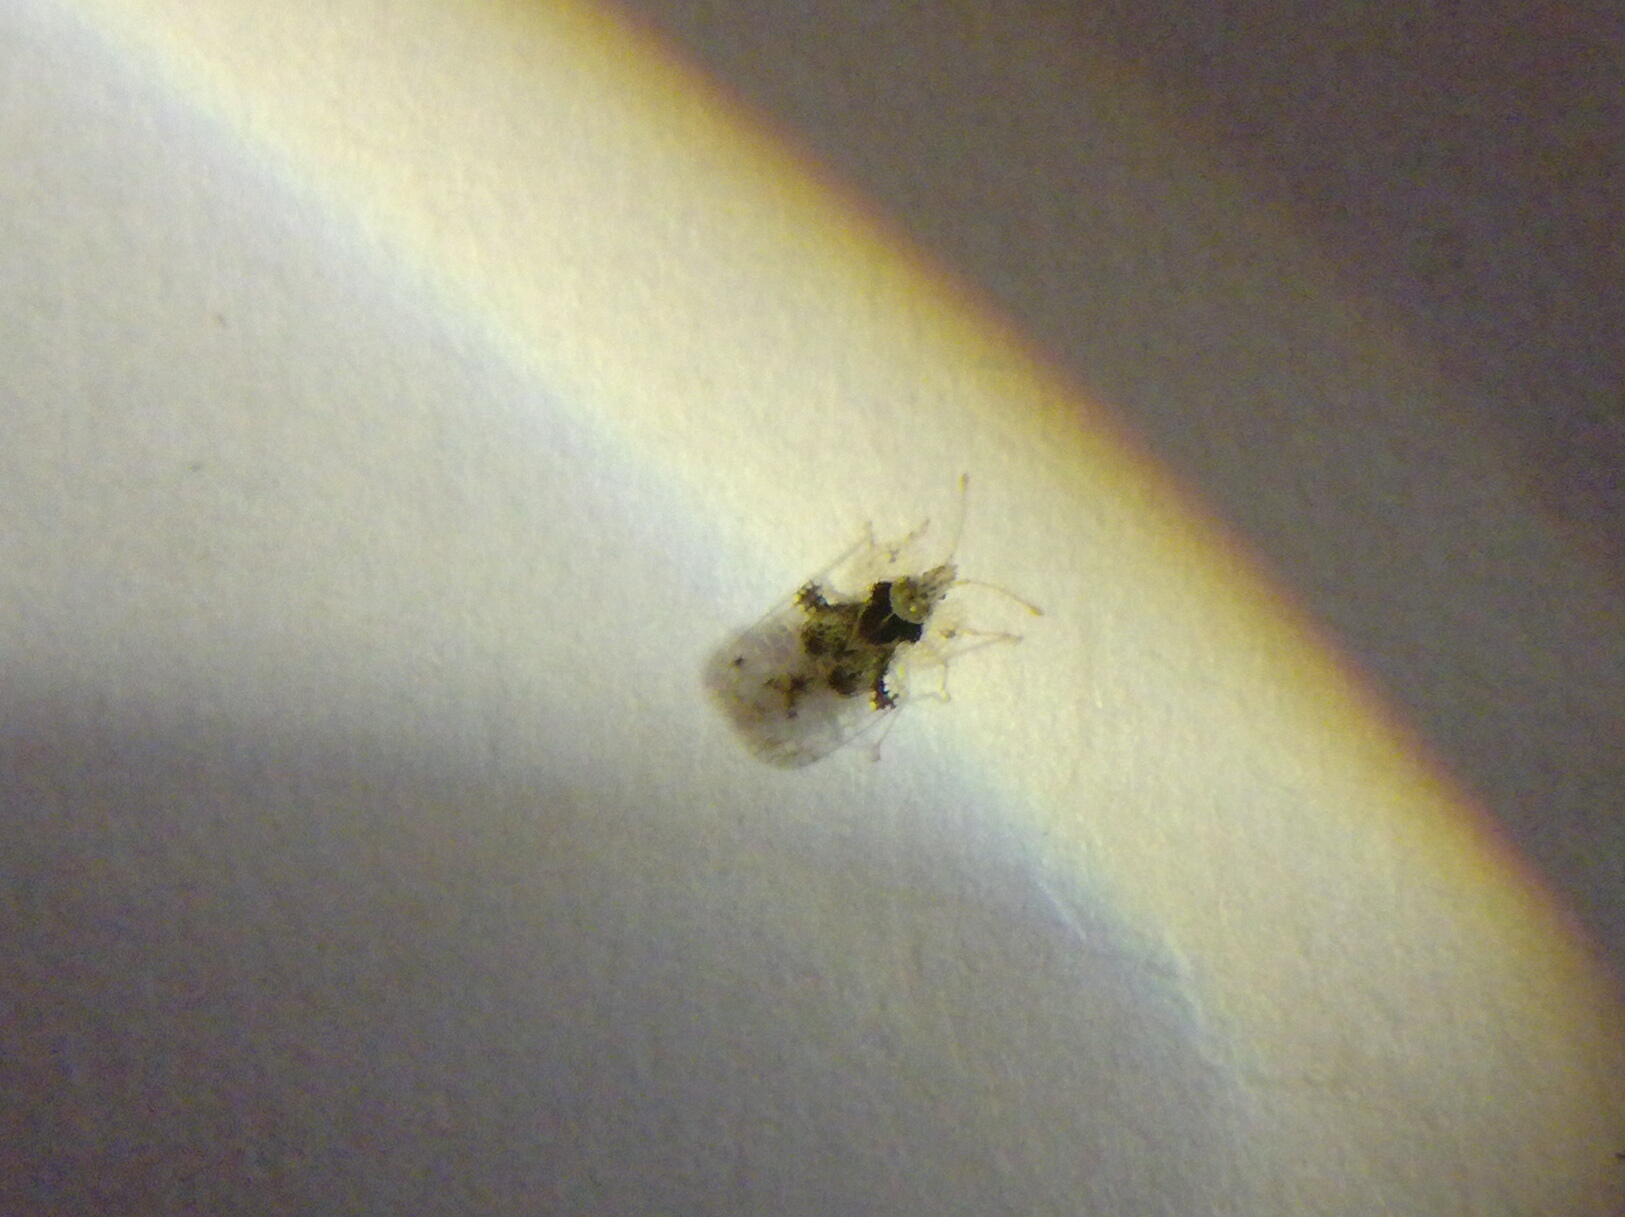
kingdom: Animalia
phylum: Arthropoda
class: Insecta
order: Hemiptera
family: Tingidae
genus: Corythucha
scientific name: Corythucha arcuata
